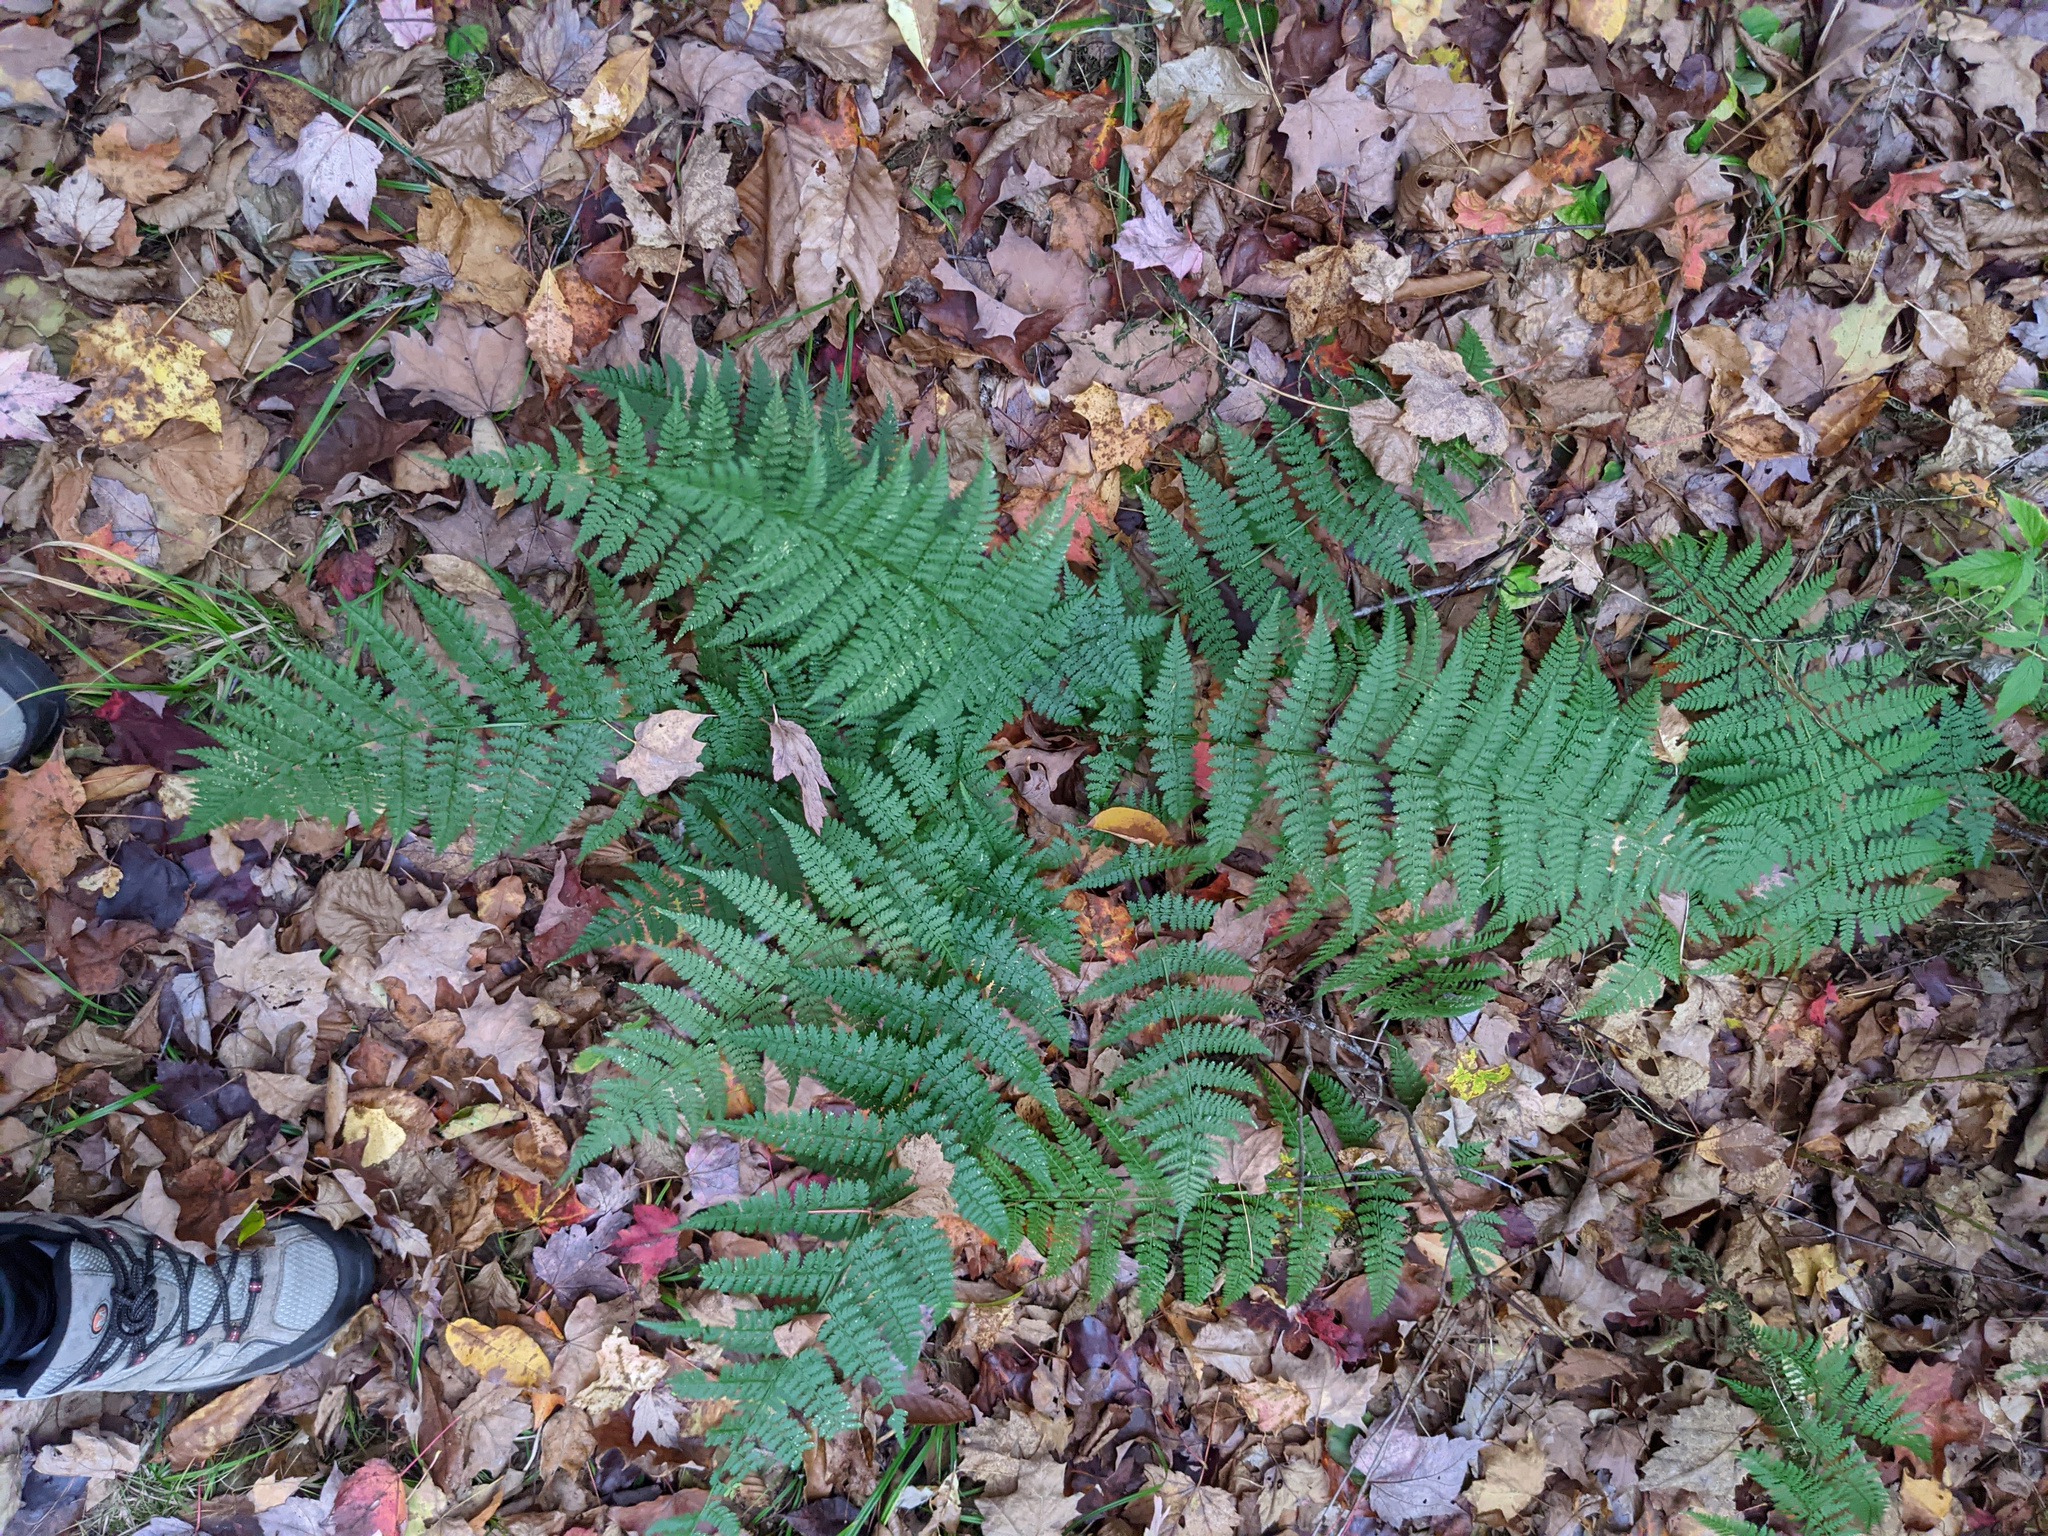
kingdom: Plantae
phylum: Tracheophyta
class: Polypodiopsida
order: Polypodiales
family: Dryopteridaceae
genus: Dryopteris
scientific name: Dryopteris intermedia
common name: Evergreen wood fern
